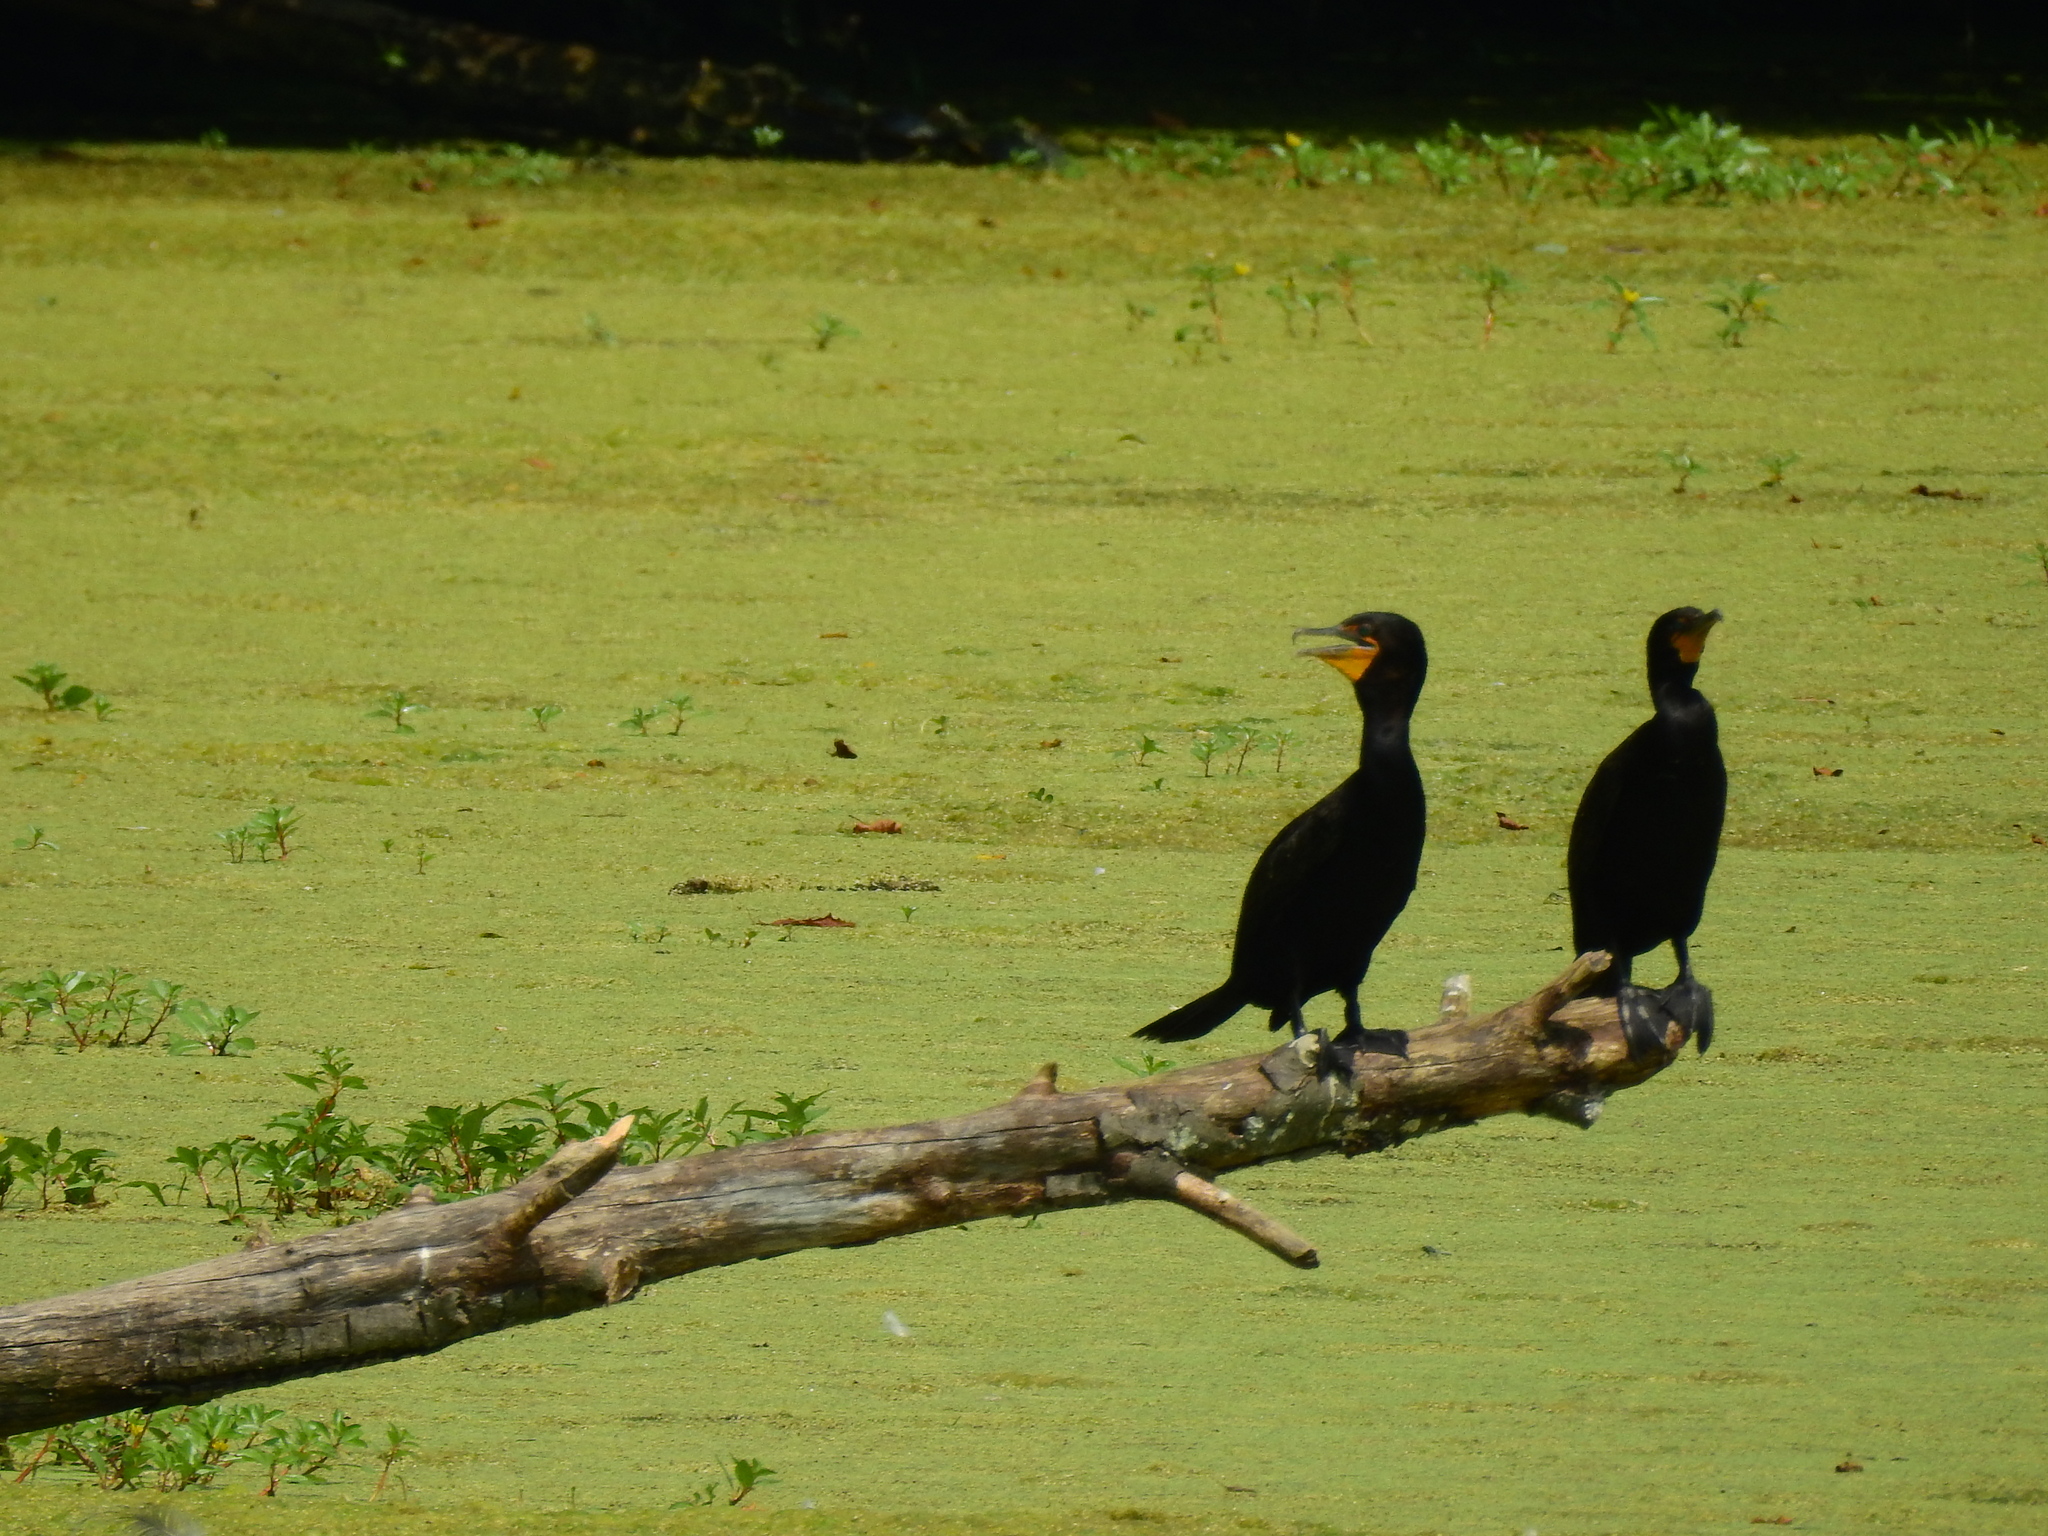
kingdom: Animalia
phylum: Chordata
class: Aves
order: Suliformes
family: Phalacrocoracidae
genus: Phalacrocorax
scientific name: Phalacrocorax auritus
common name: Double-crested cormorant
